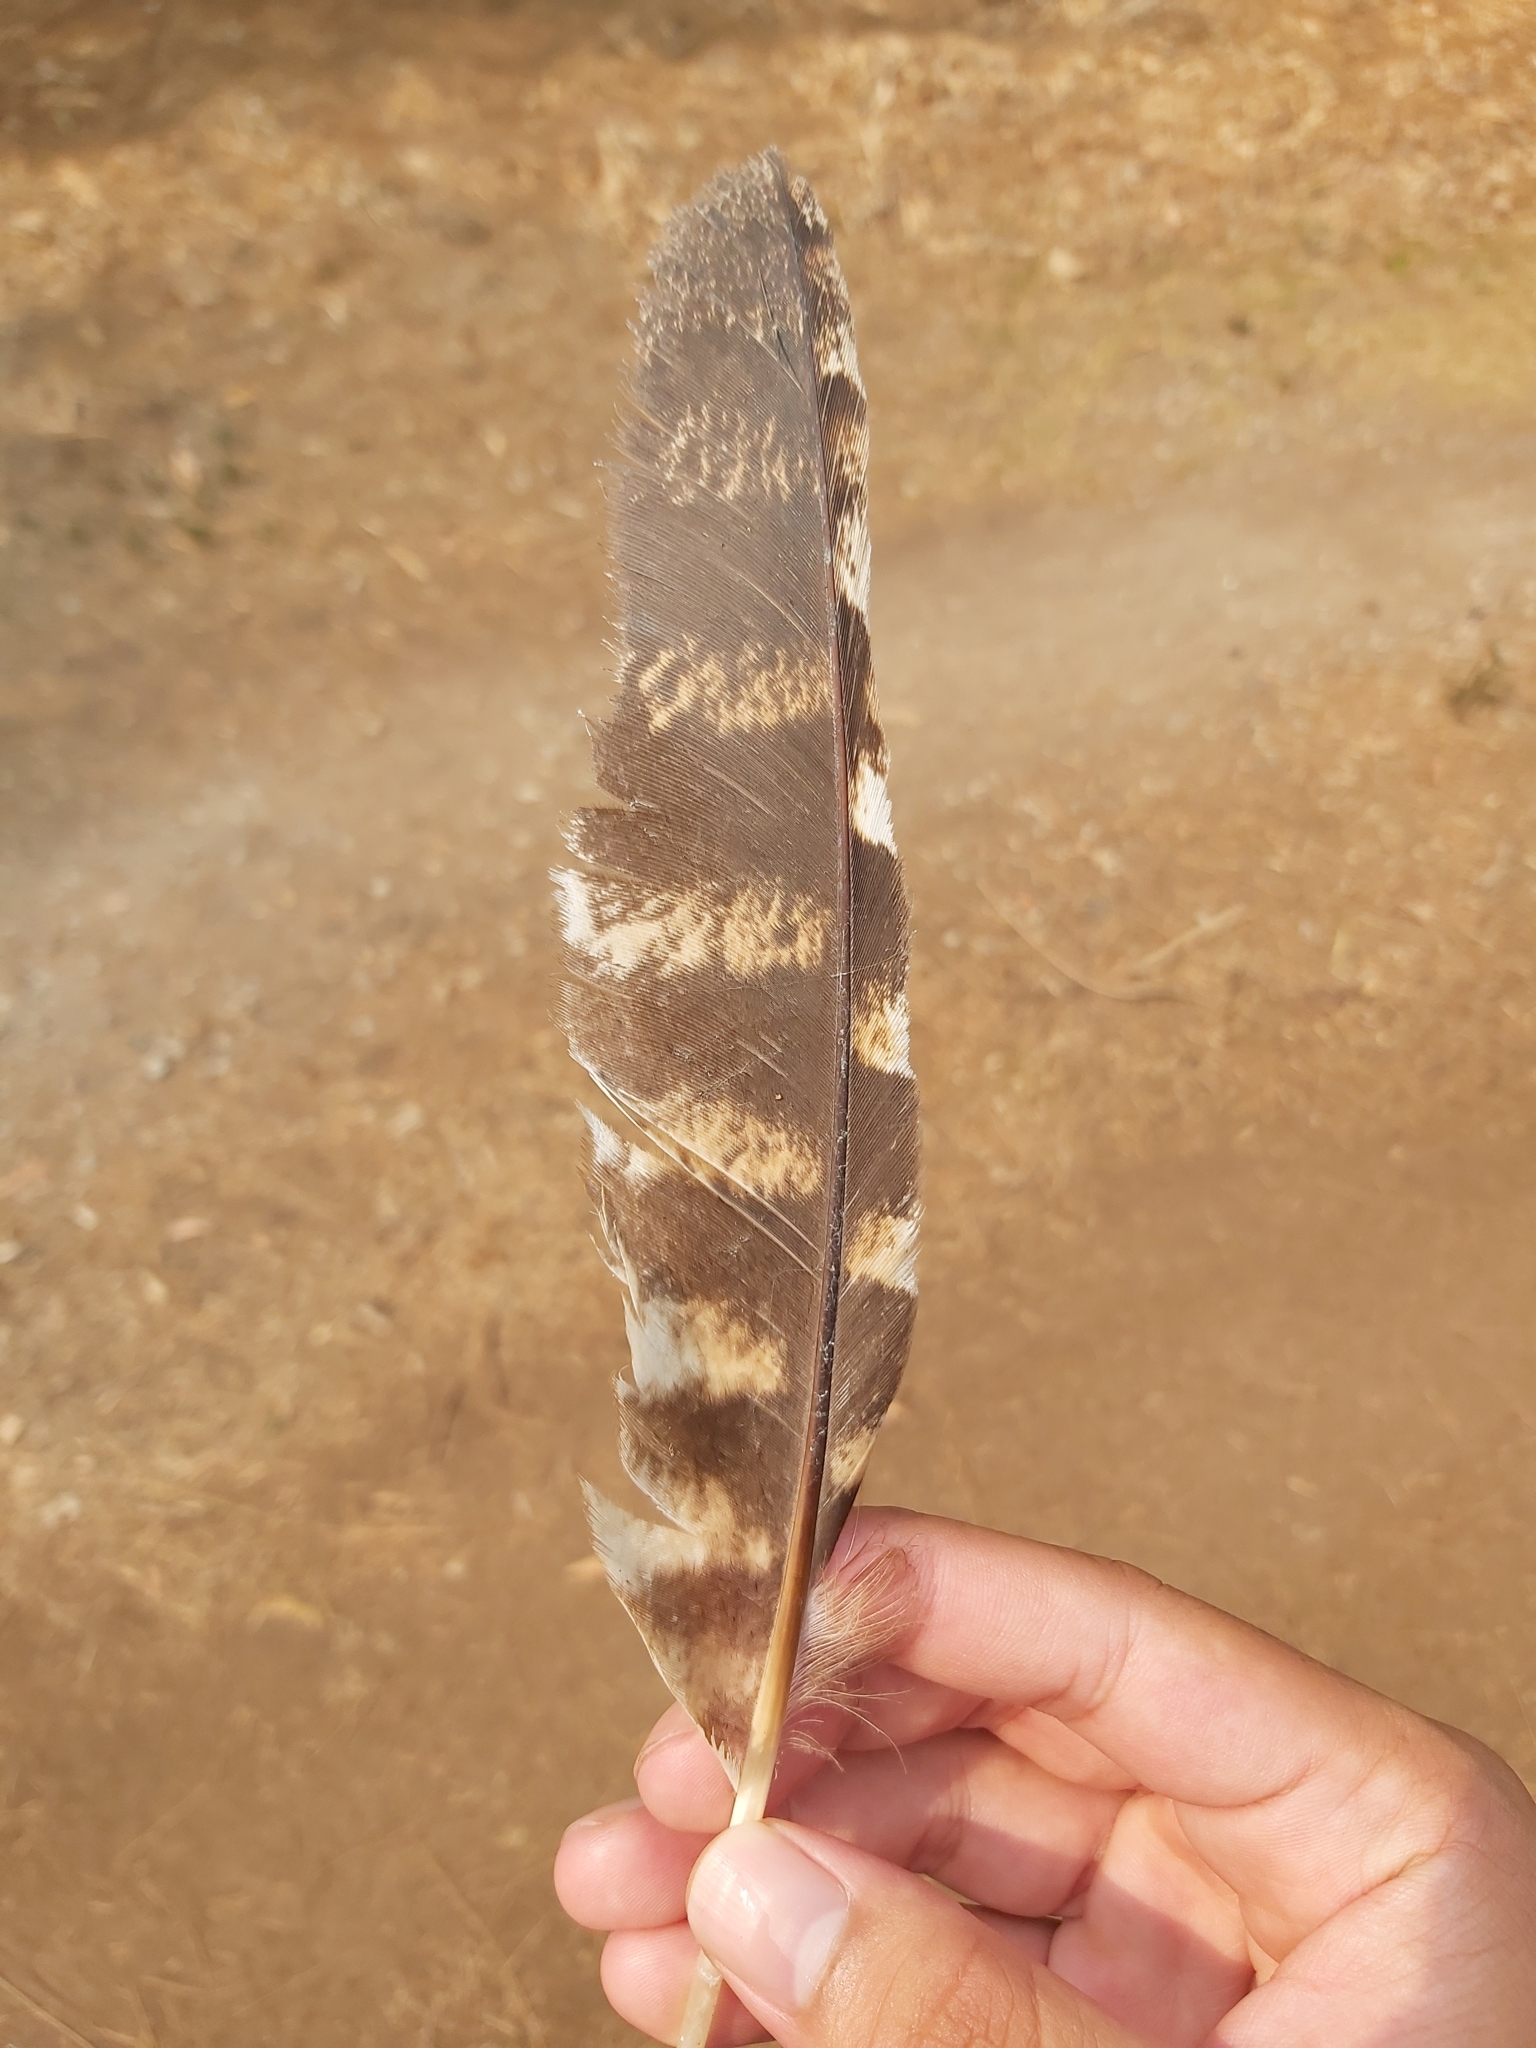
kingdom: Animalia
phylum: Chordata
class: Aves
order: Caprimulgiformes
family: Podargidae
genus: Podargus
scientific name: Podargus strigoides
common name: Tawny frogmouth
